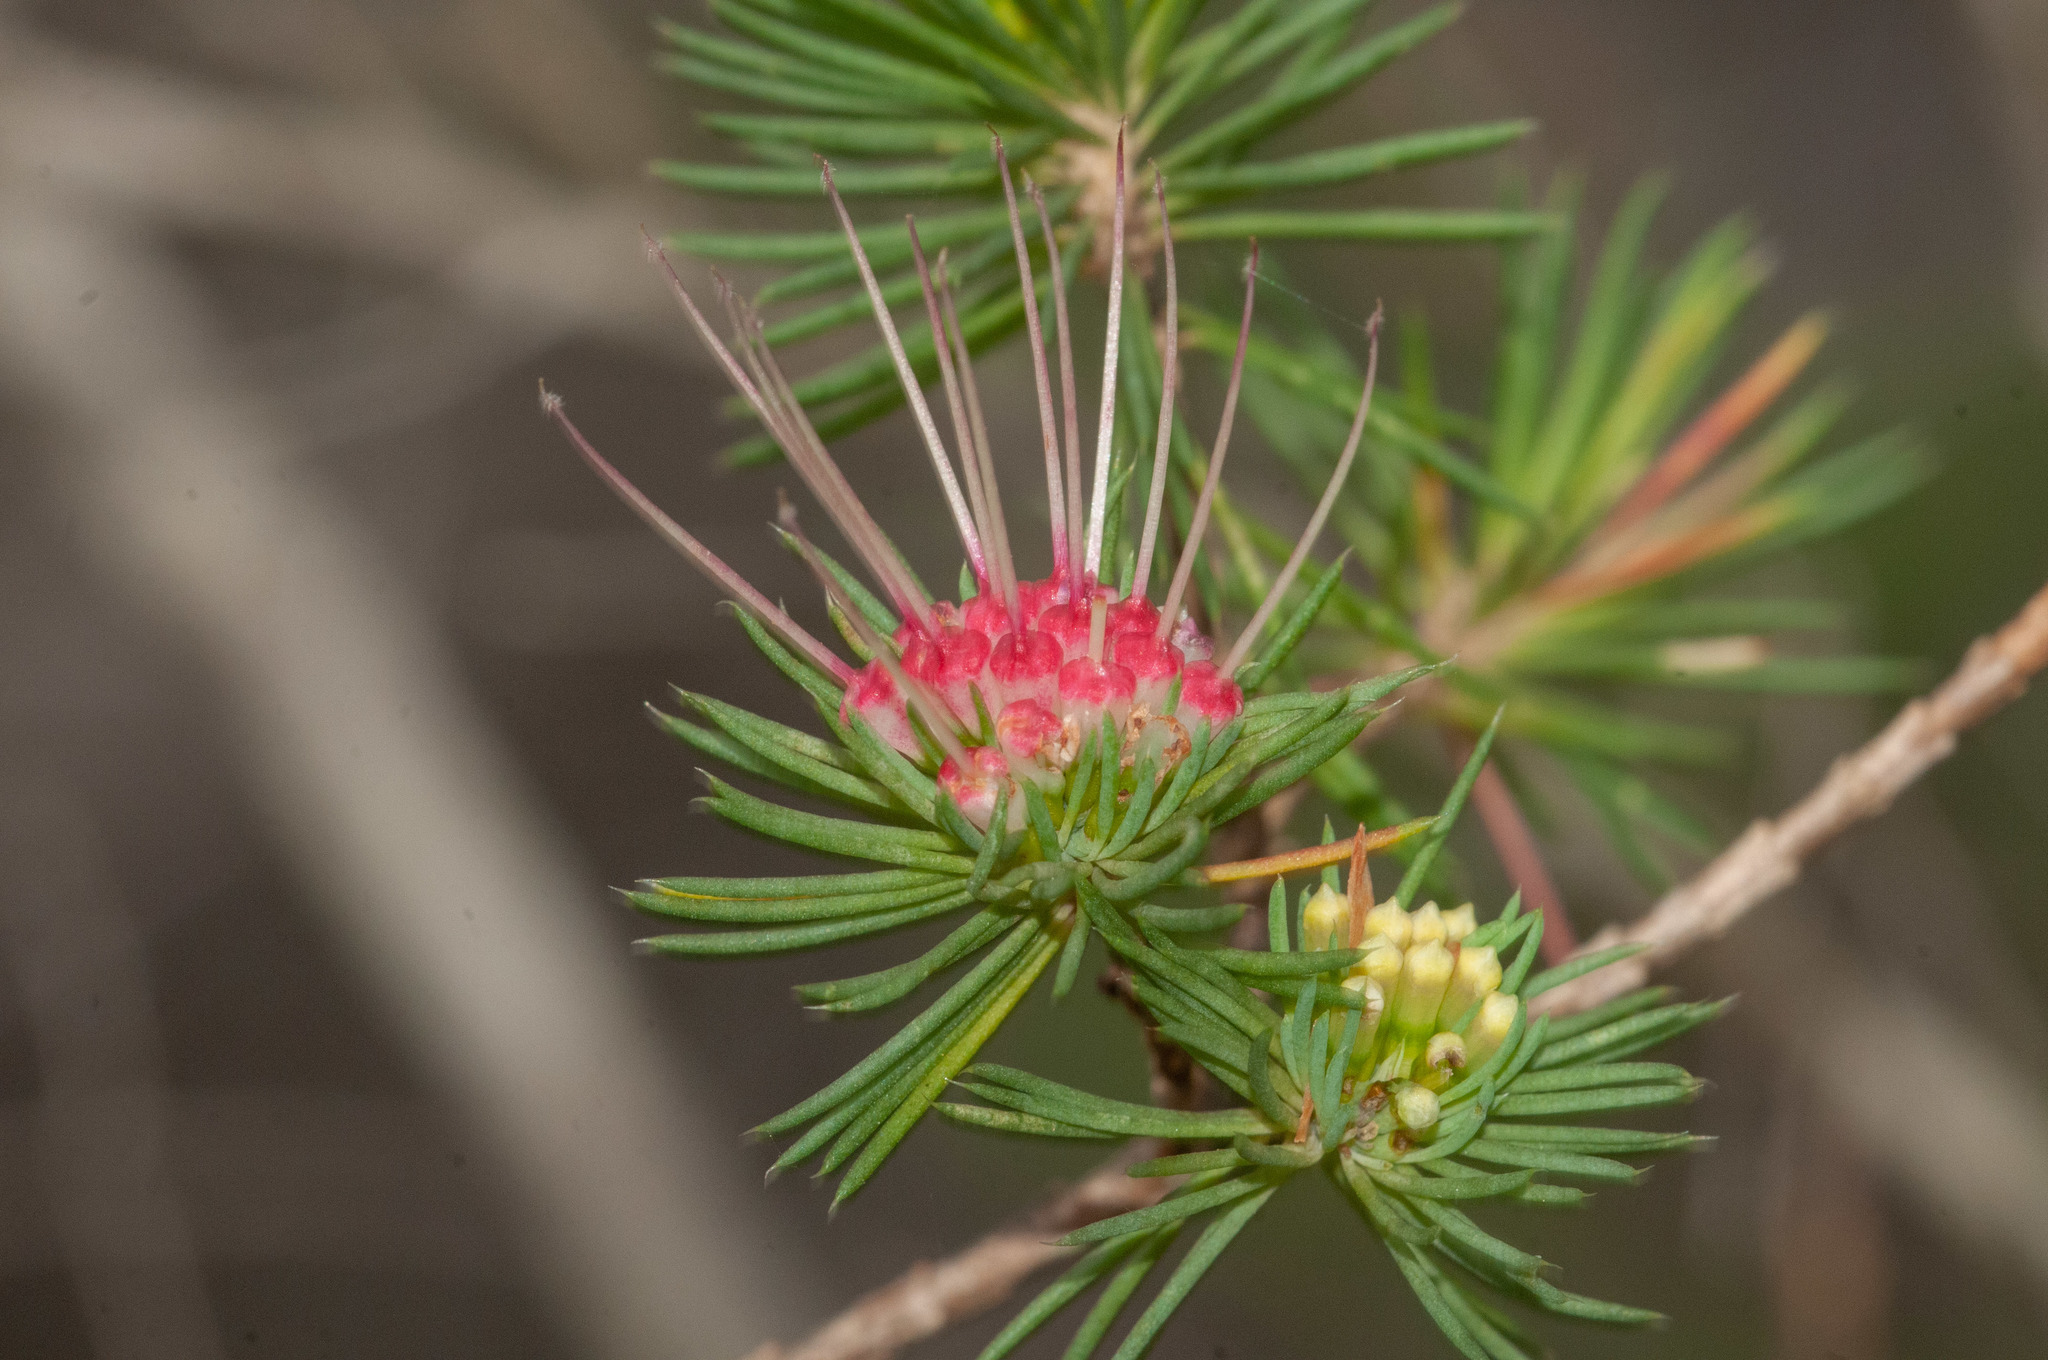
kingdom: Plantae
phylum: Tracheophyta
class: Magnoliopsida
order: Myrtales
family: Myrtaceae
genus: Darwinia
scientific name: Darwinia fascicularis
